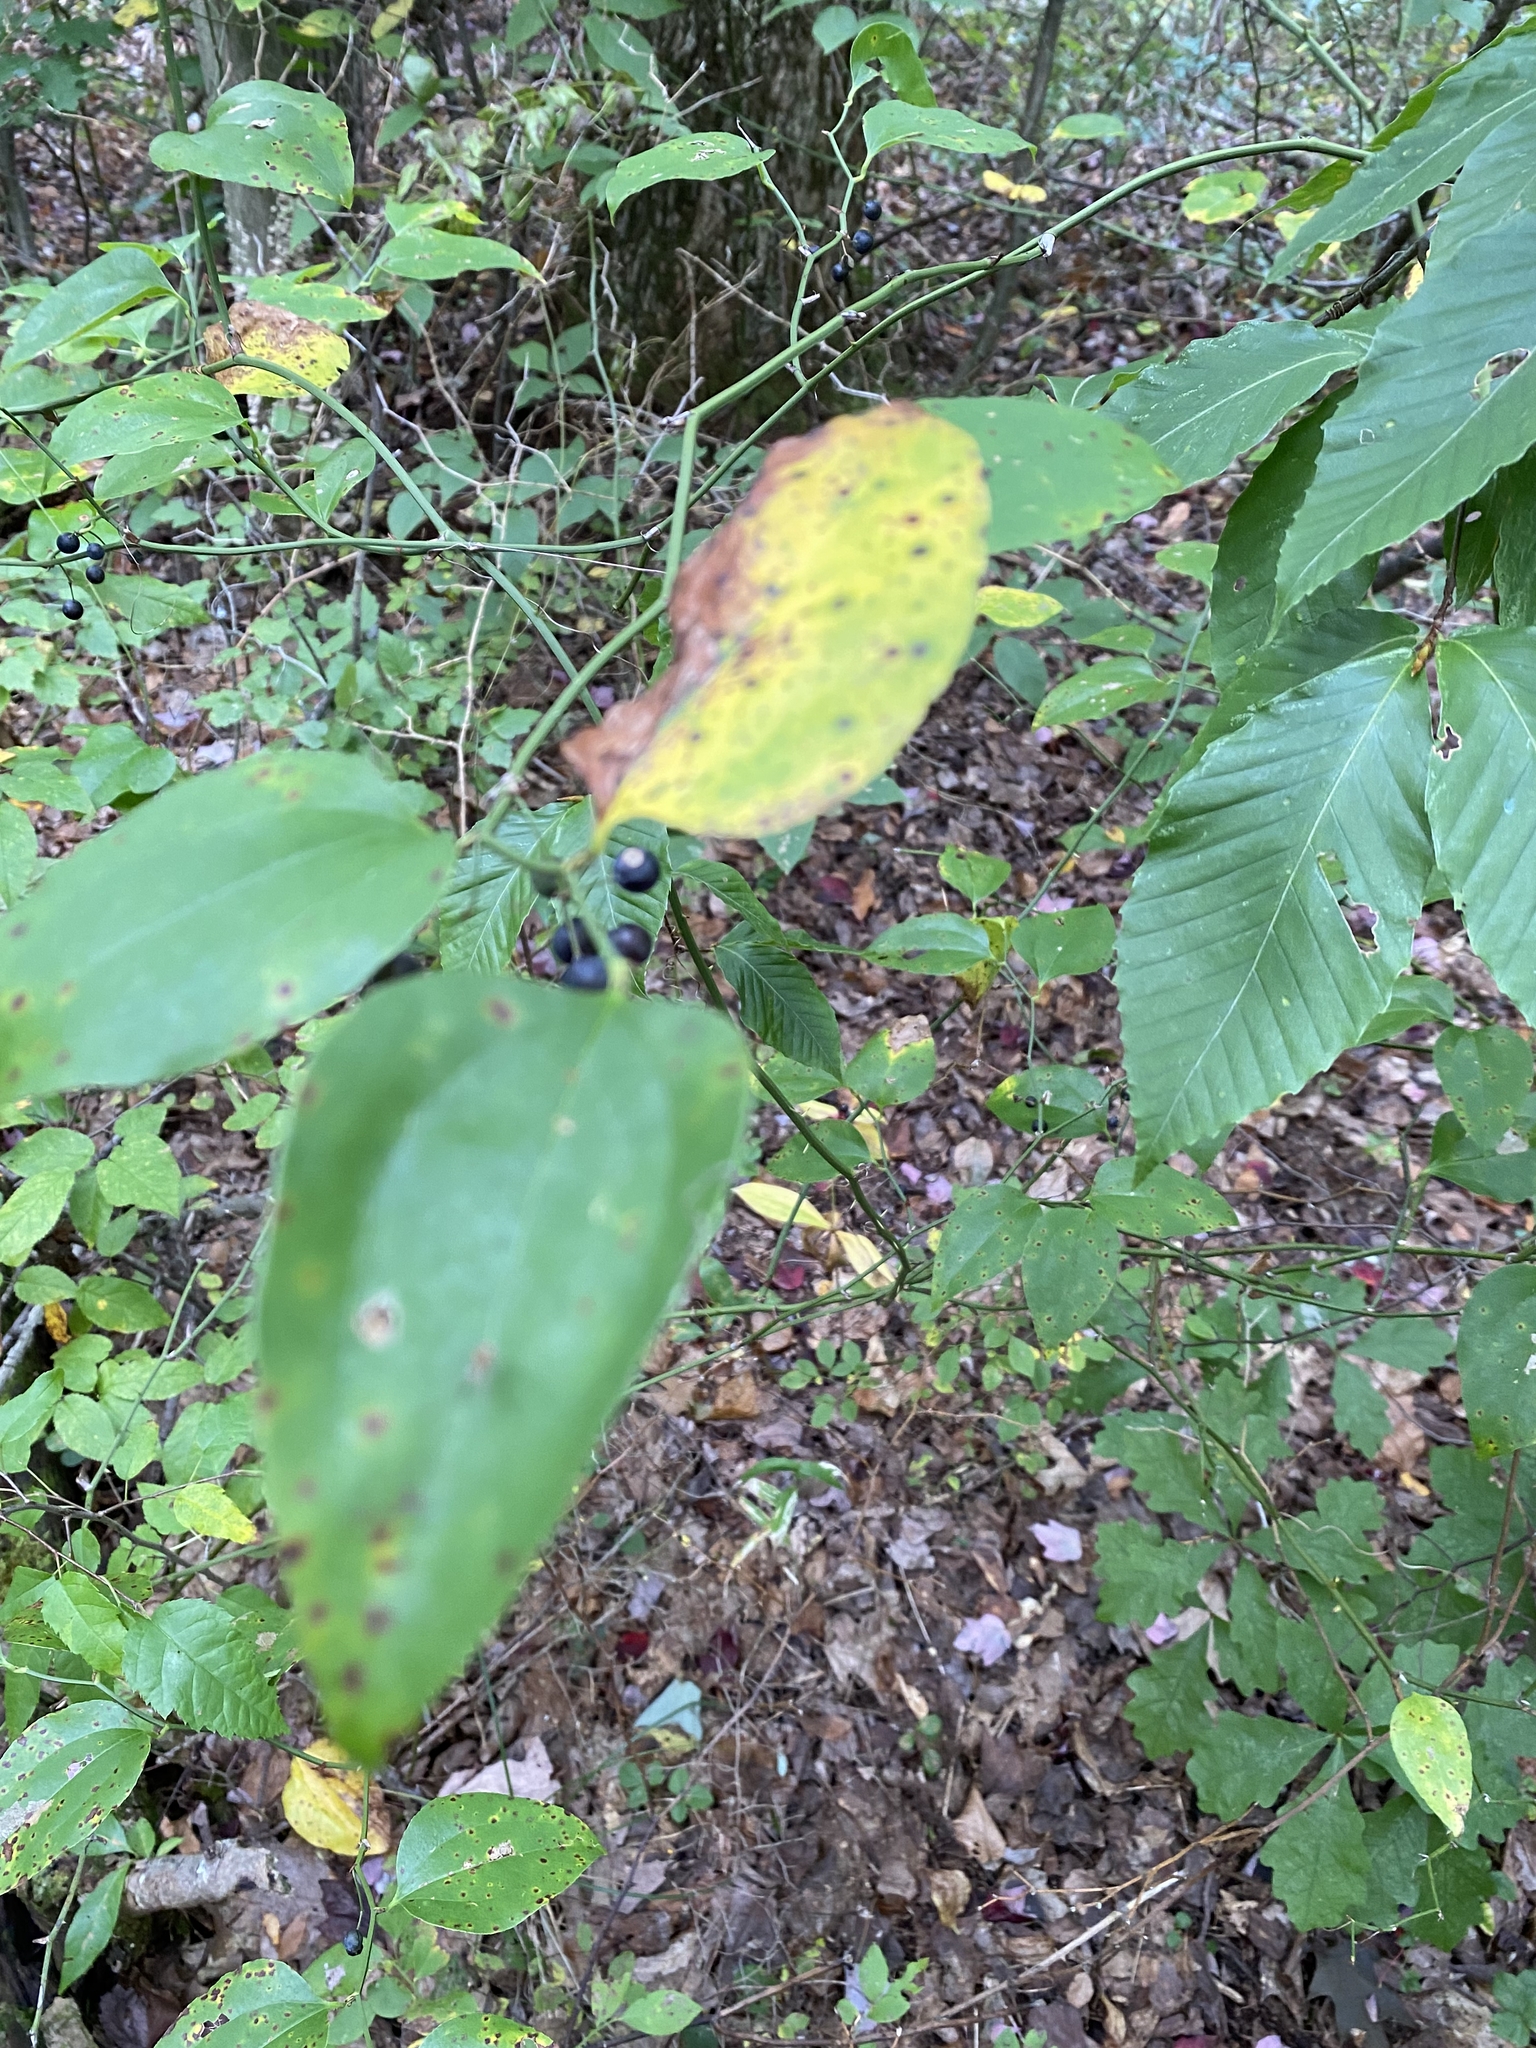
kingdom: Plantae
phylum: Tracheophyta
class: Liliopsida
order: Liliales
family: Smilacaceae
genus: Smilax
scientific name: Smilax rotundifolia
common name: Bullbriar
